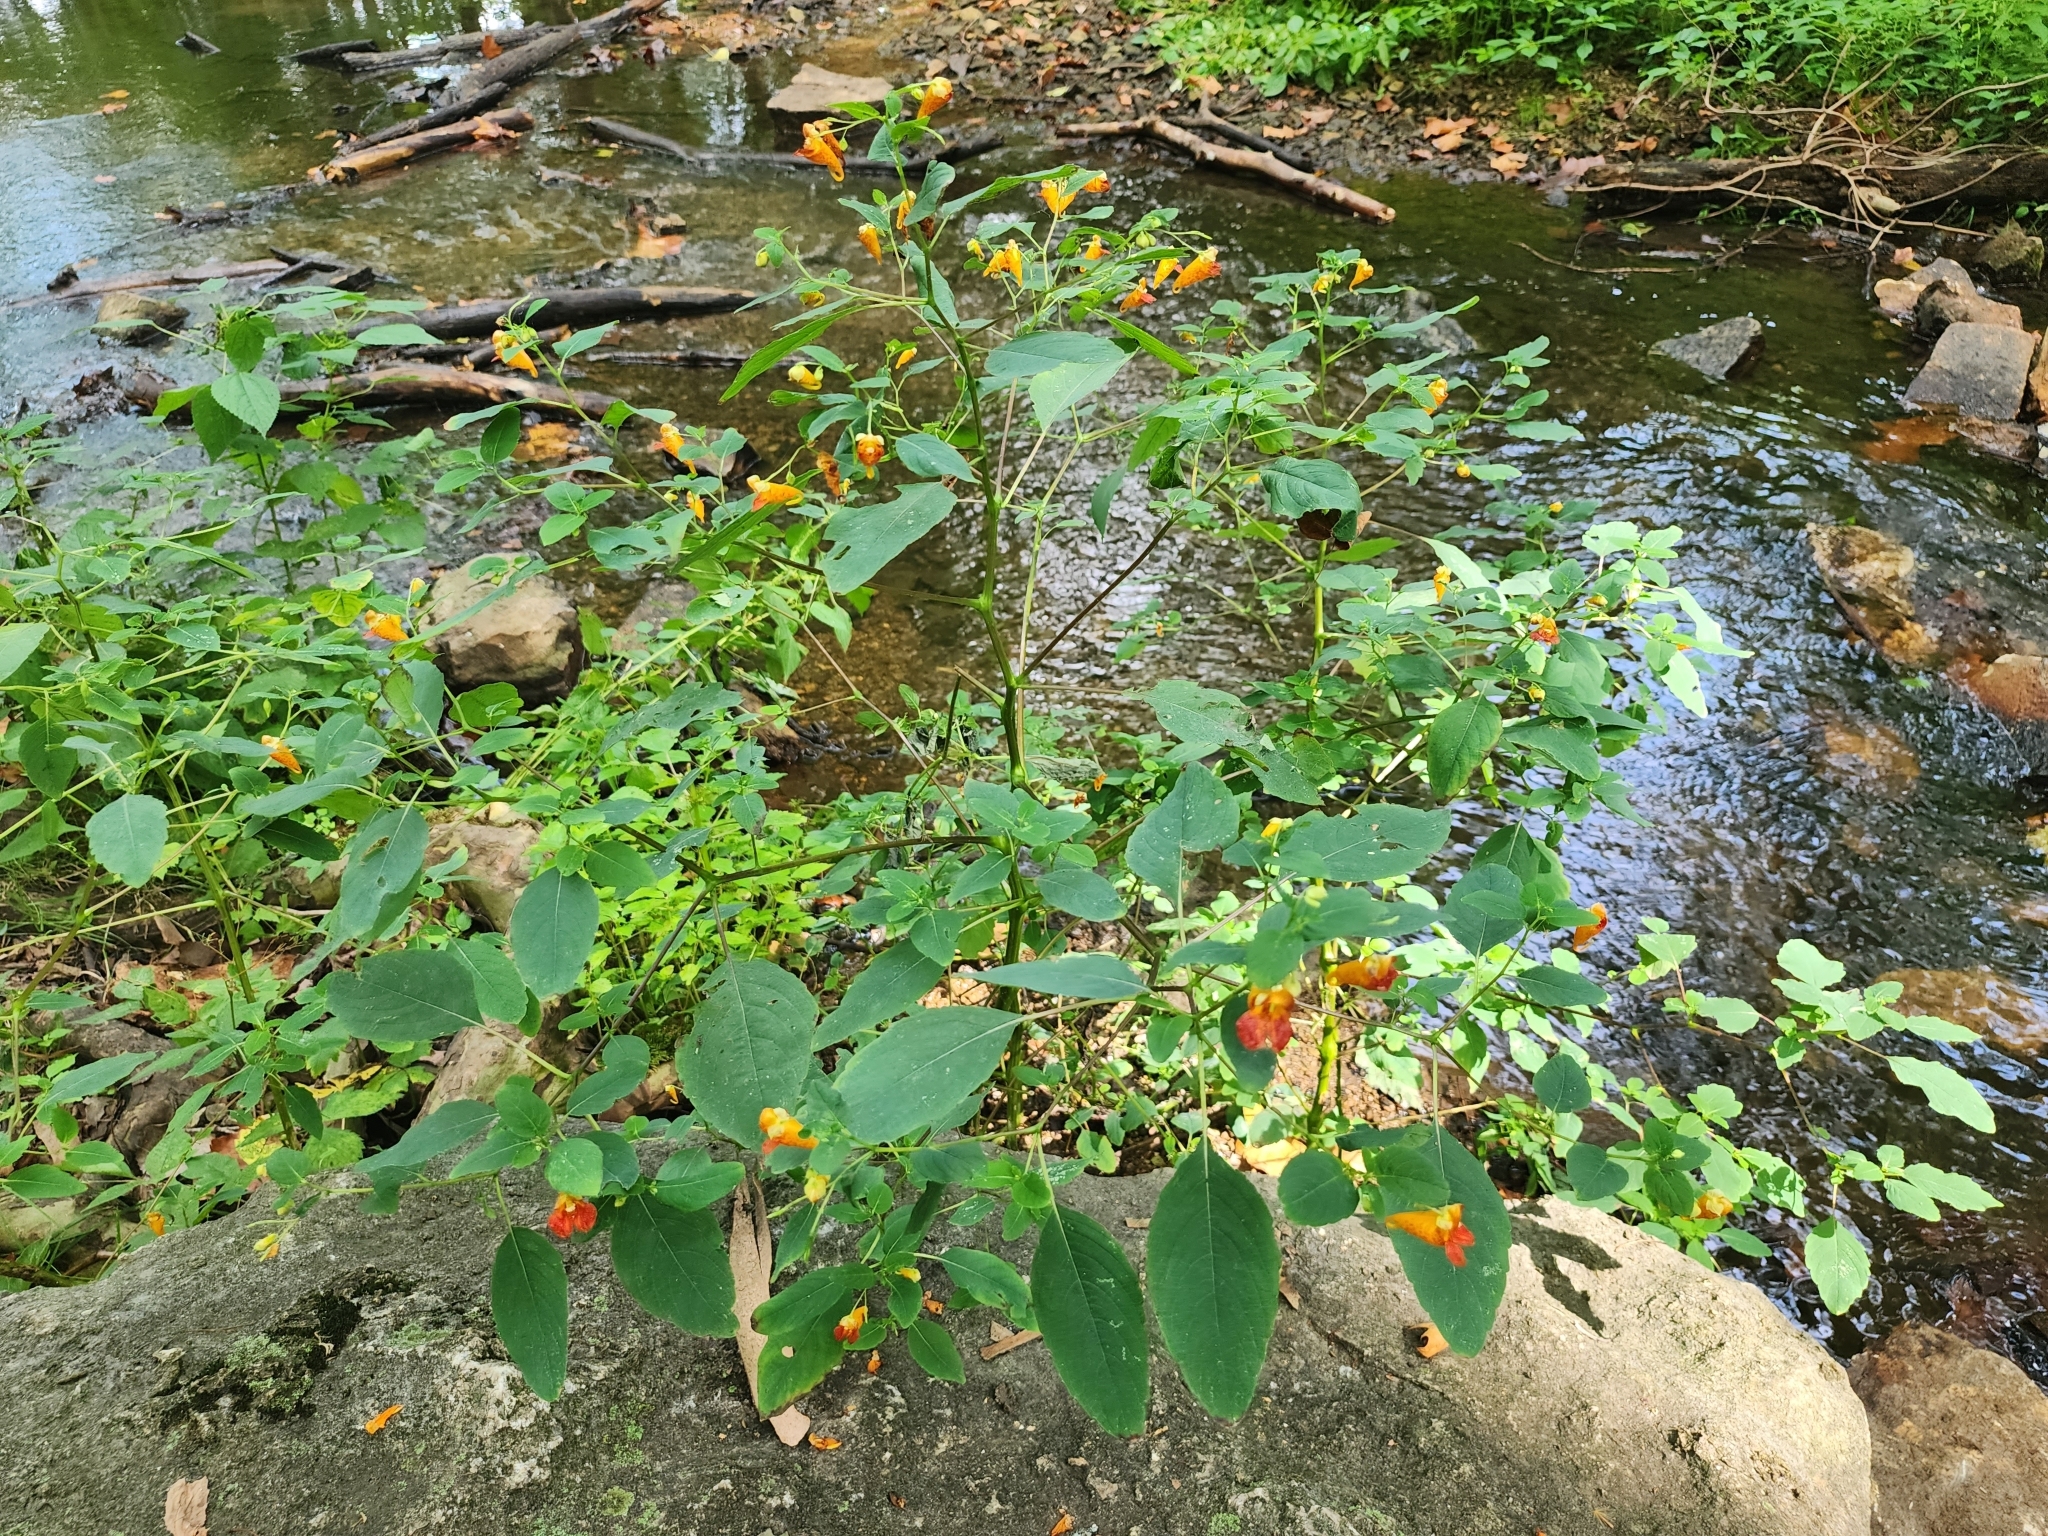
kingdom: Plantae
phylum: Tracheophyta
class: Magnoliopsida
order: Ericales
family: Balsaminaceae
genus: Impatiens
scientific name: Impatiens capensis
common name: Orange balsam
